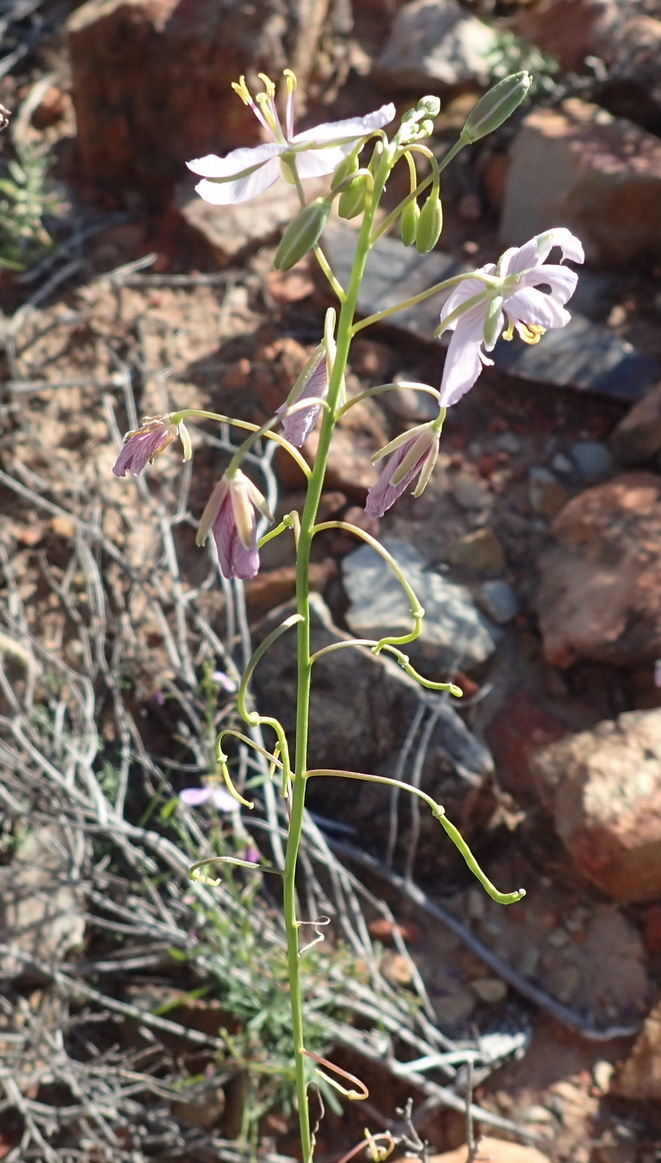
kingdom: Plantae
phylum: Tracheophyta
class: Magnoliopsida
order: Brassicales
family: Brassicaceae
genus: Heliophila
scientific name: Heliophila suavissima
